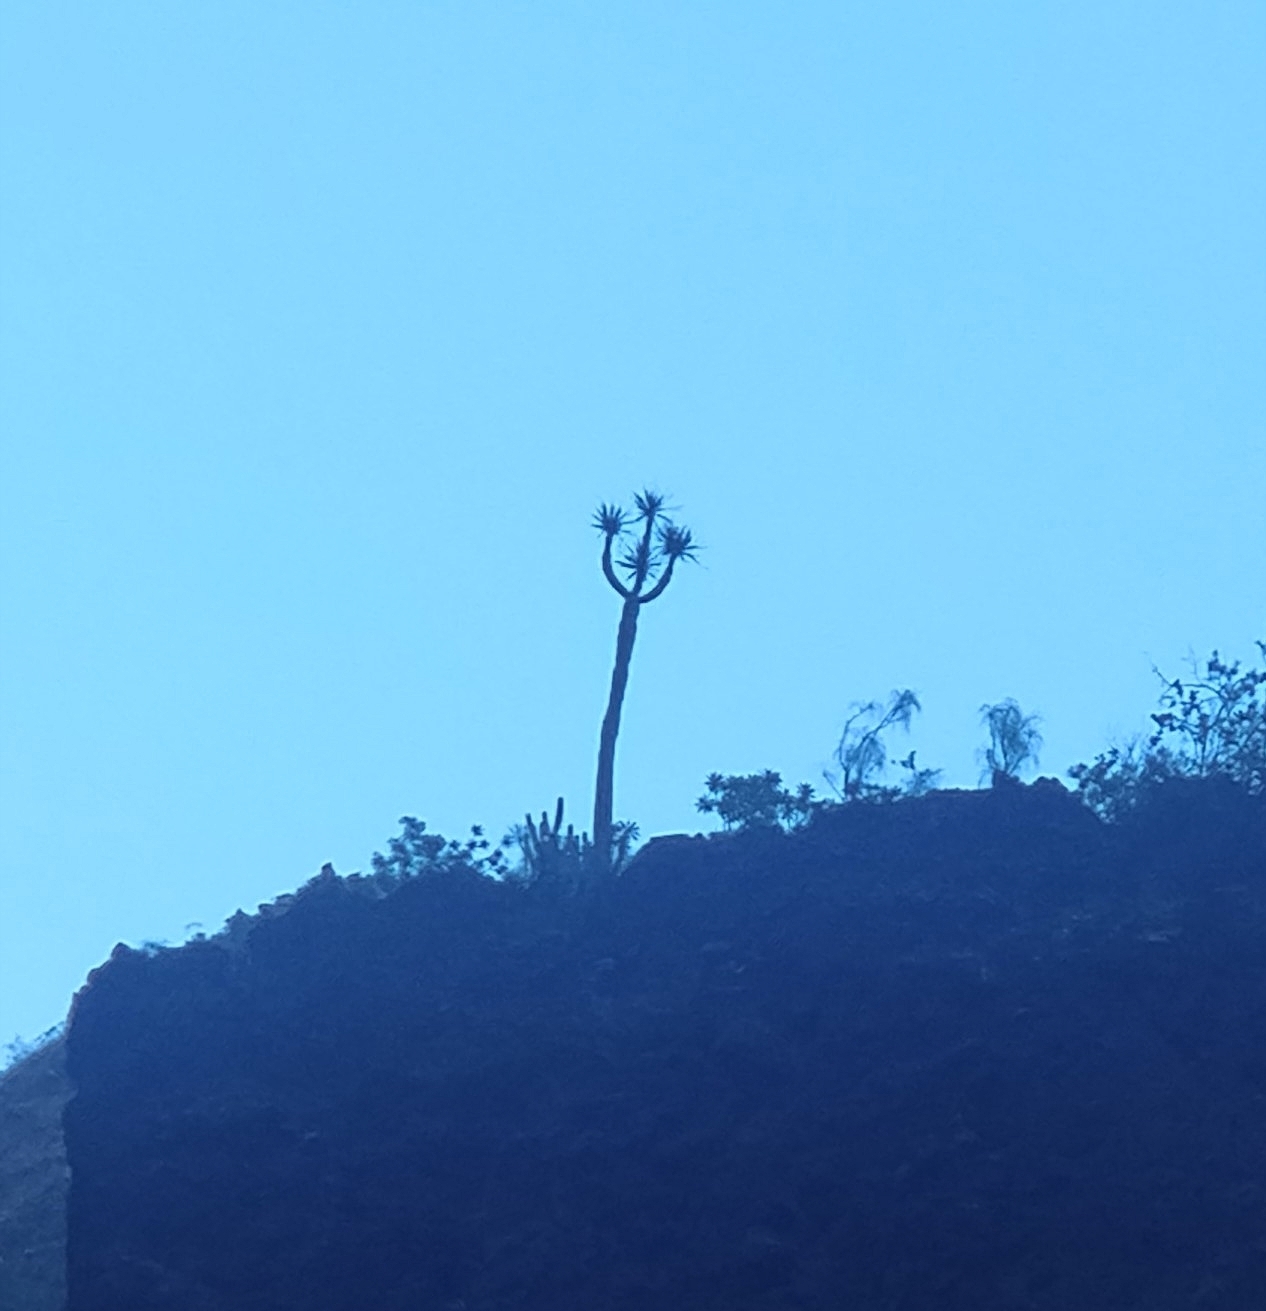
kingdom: Plantae
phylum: Tracheophyta
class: Liliopsida
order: Asparagales
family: Asparagaceae
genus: Dracaena
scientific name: Dracaena draco
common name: Canary island dragon tree
